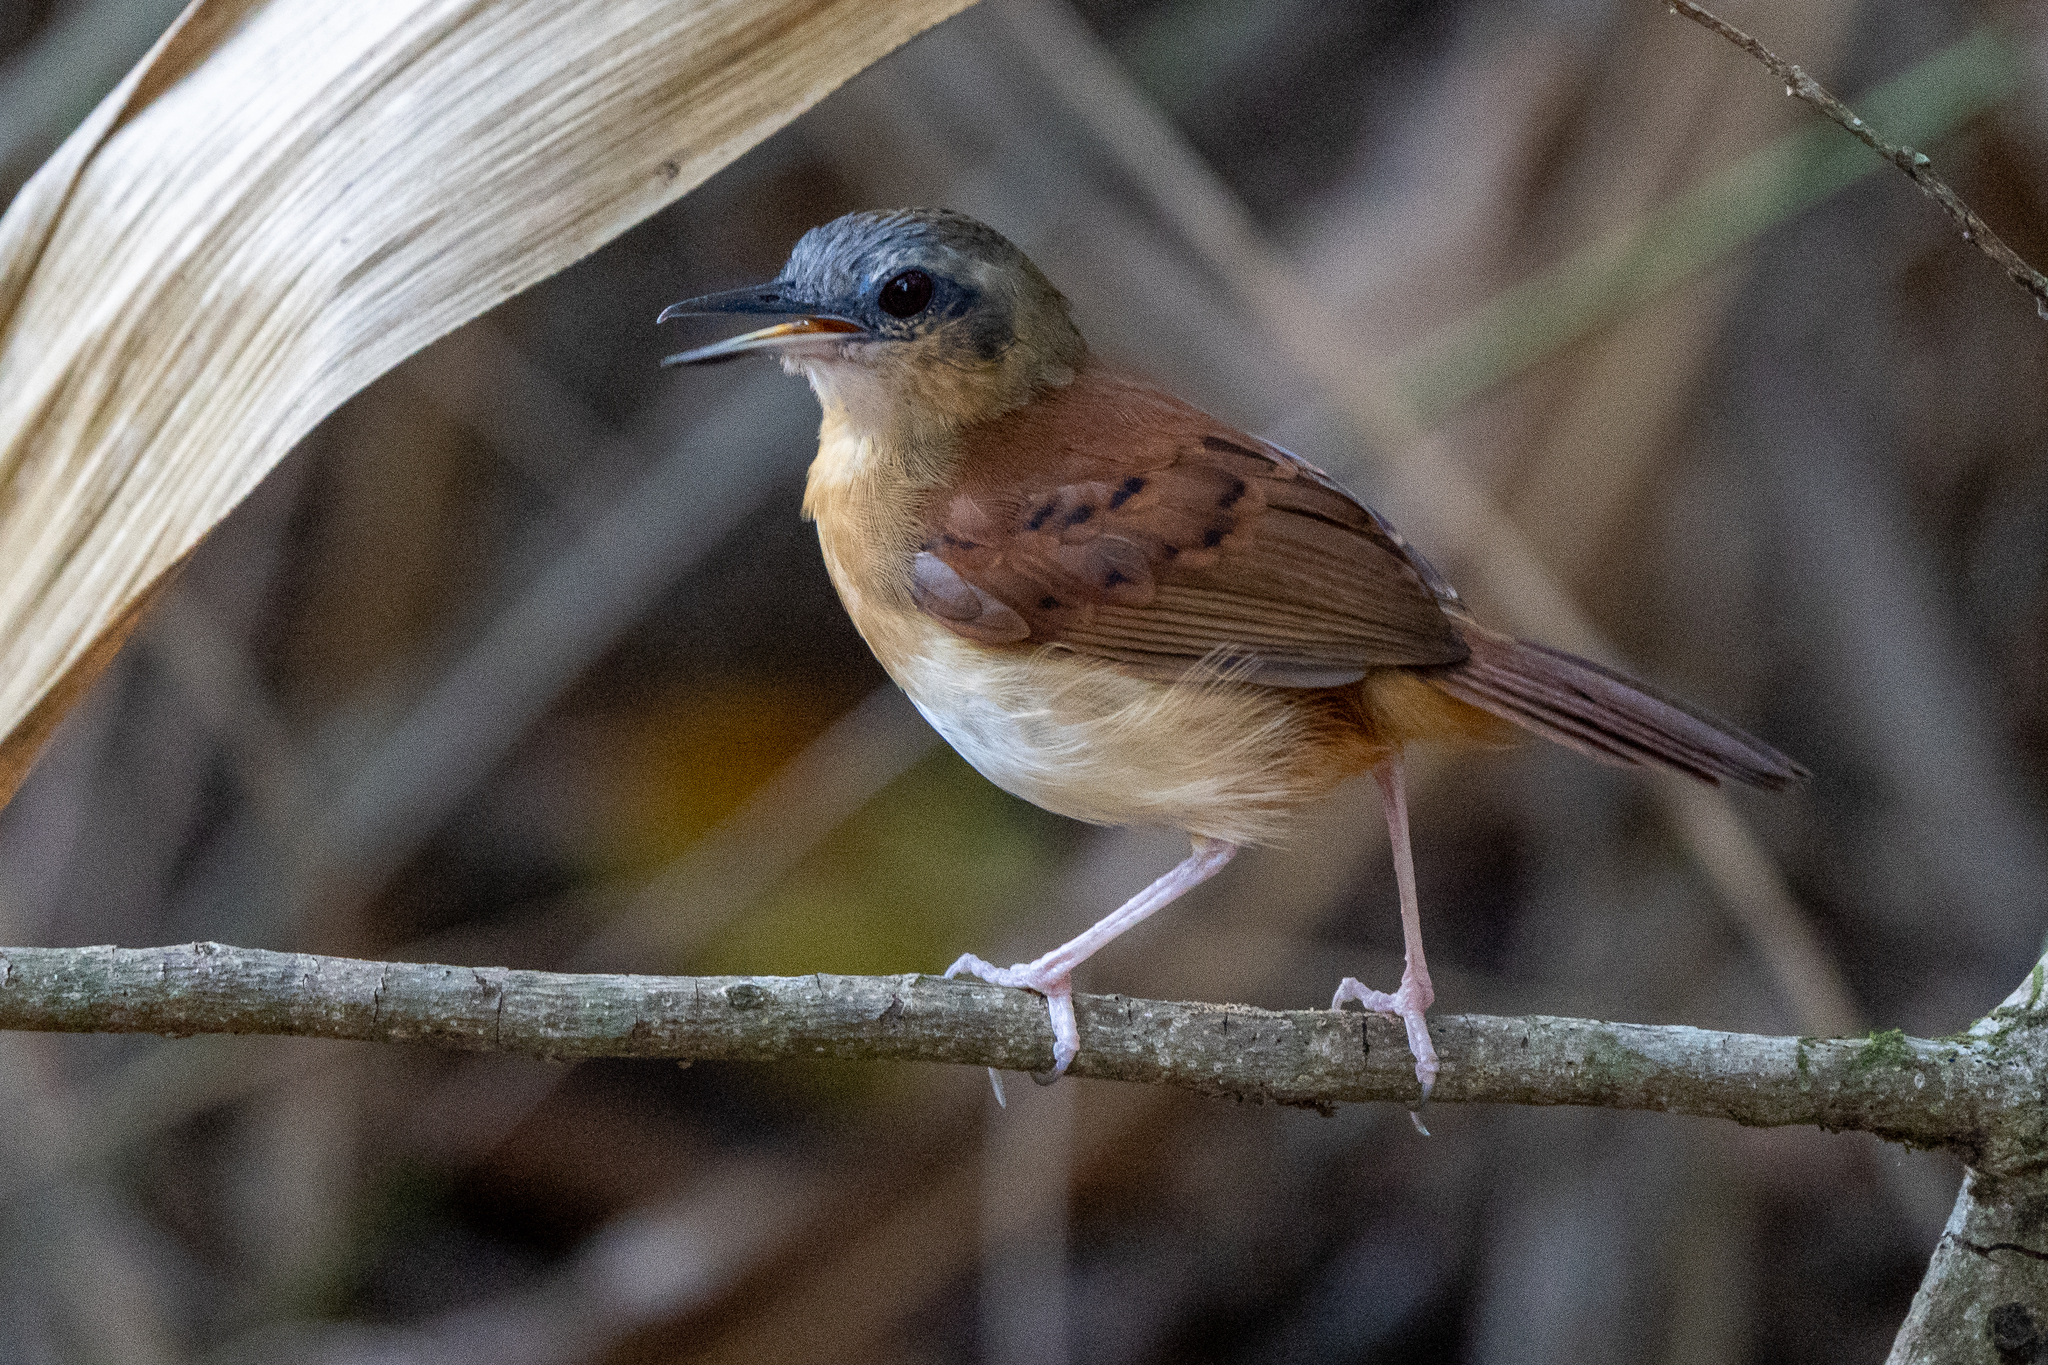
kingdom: Animalia
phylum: Chordata
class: Aves
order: Passeriformes
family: Thamnophilidae
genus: Myrmeciza
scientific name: Myrmeciza longipes
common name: White-bellied antbird
